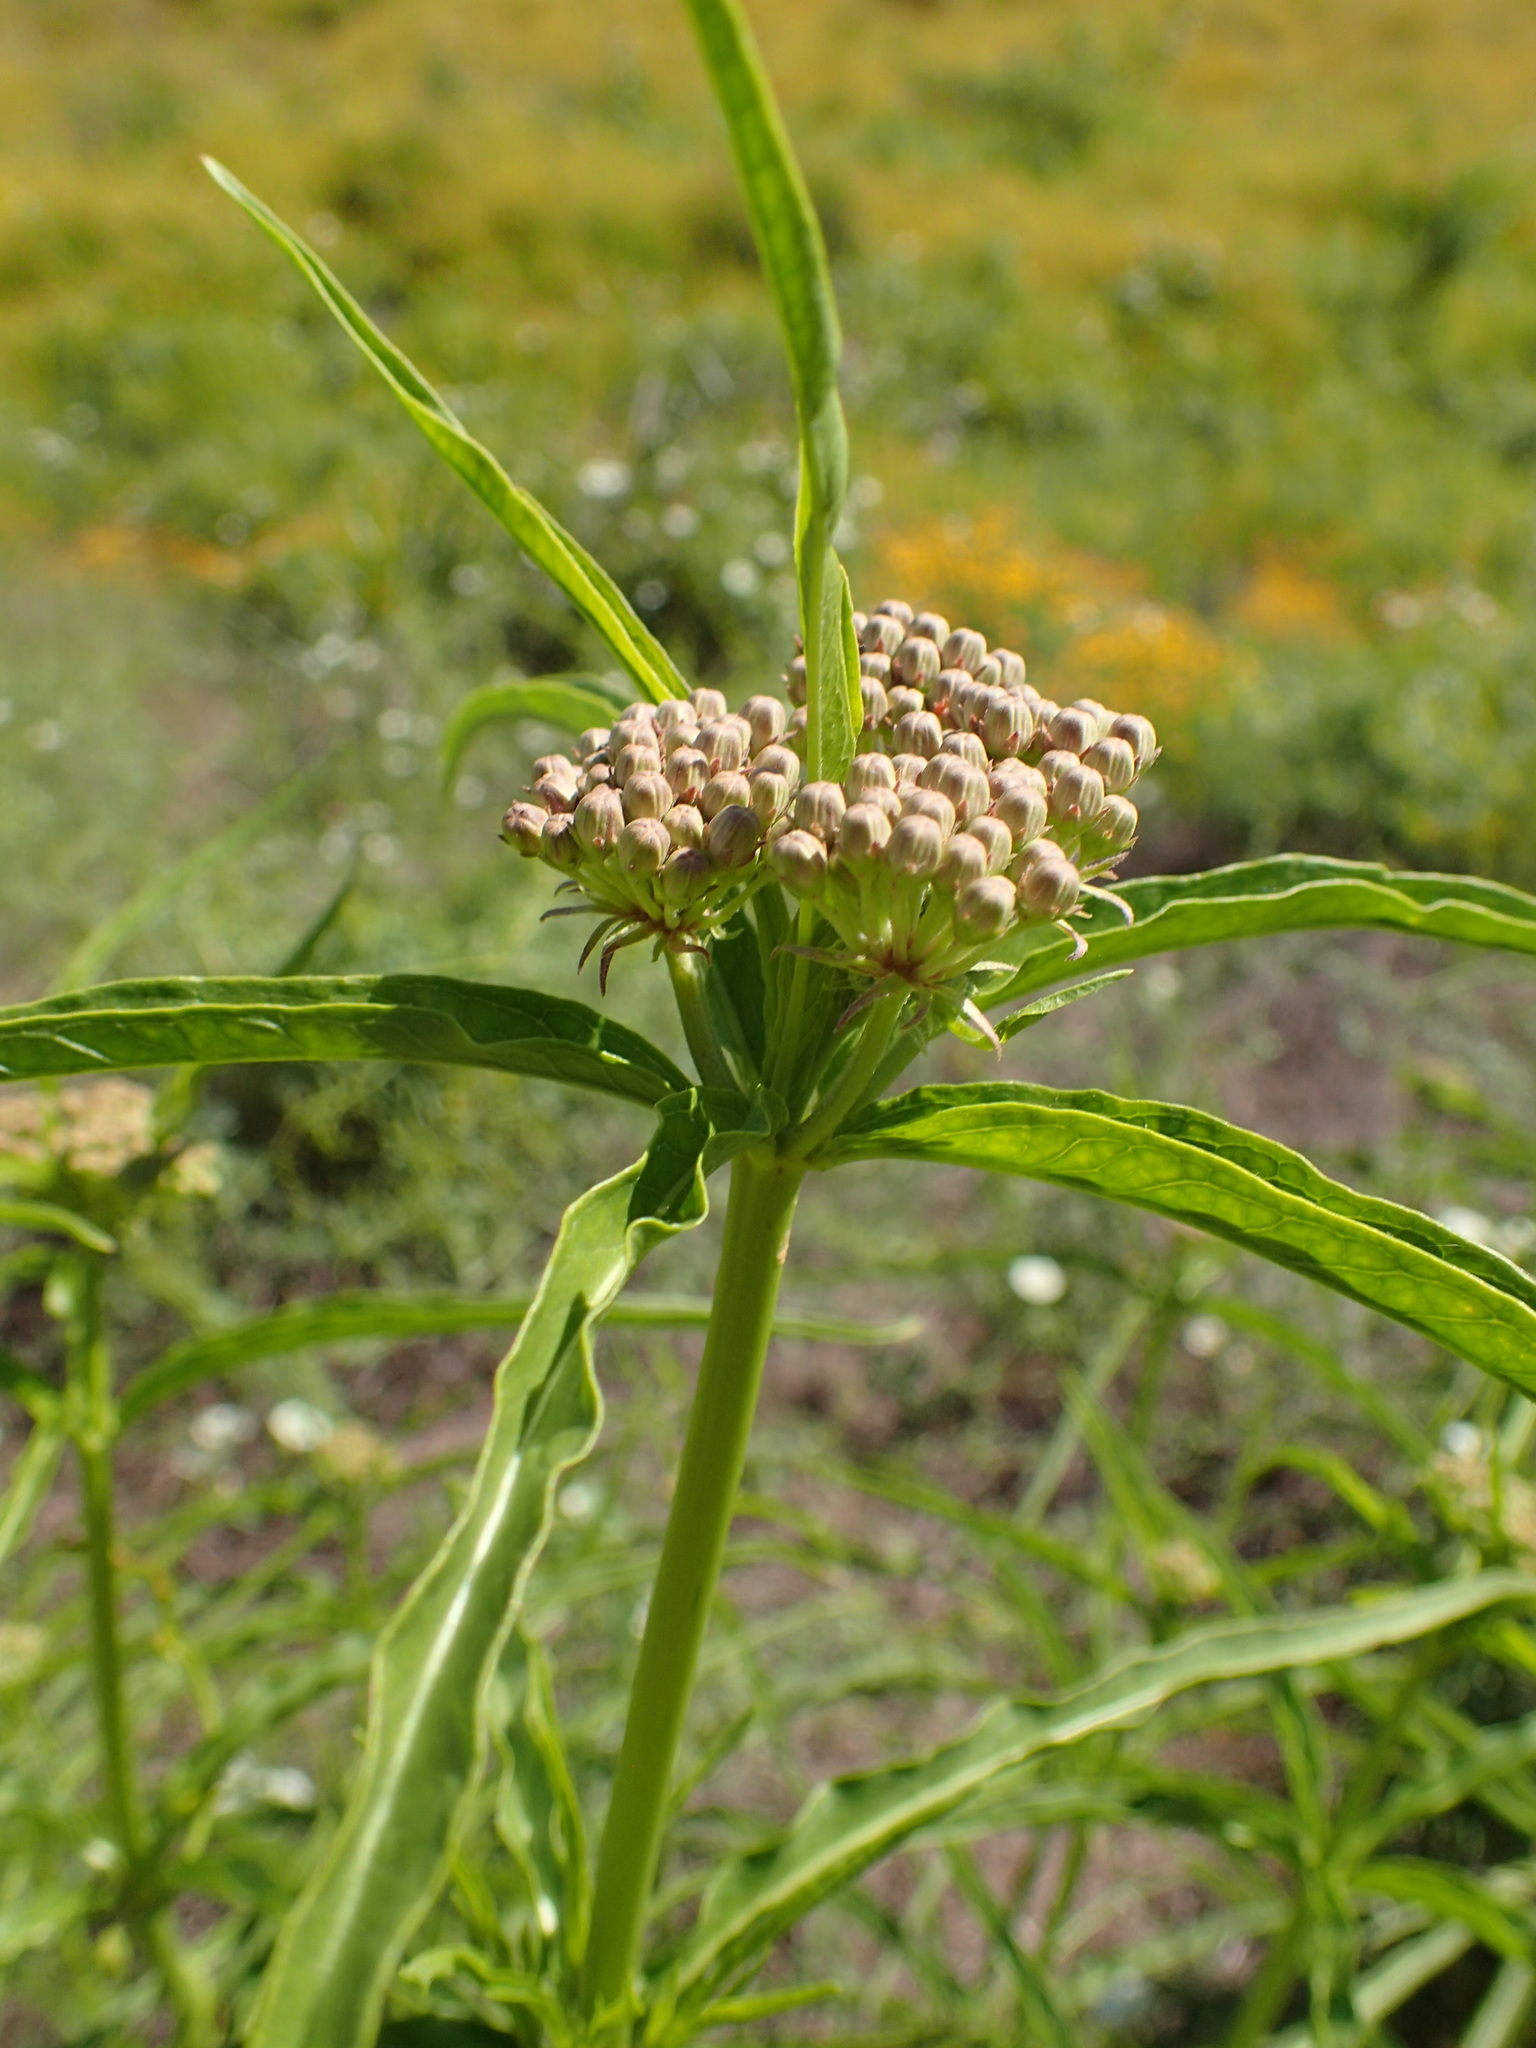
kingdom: Plantae
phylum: Tracheophyta
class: Magnoliopsida
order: Gentianales
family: Apocynaceae
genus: Asclepias
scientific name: Asclepias fascicularis
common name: Mexican milkweed
